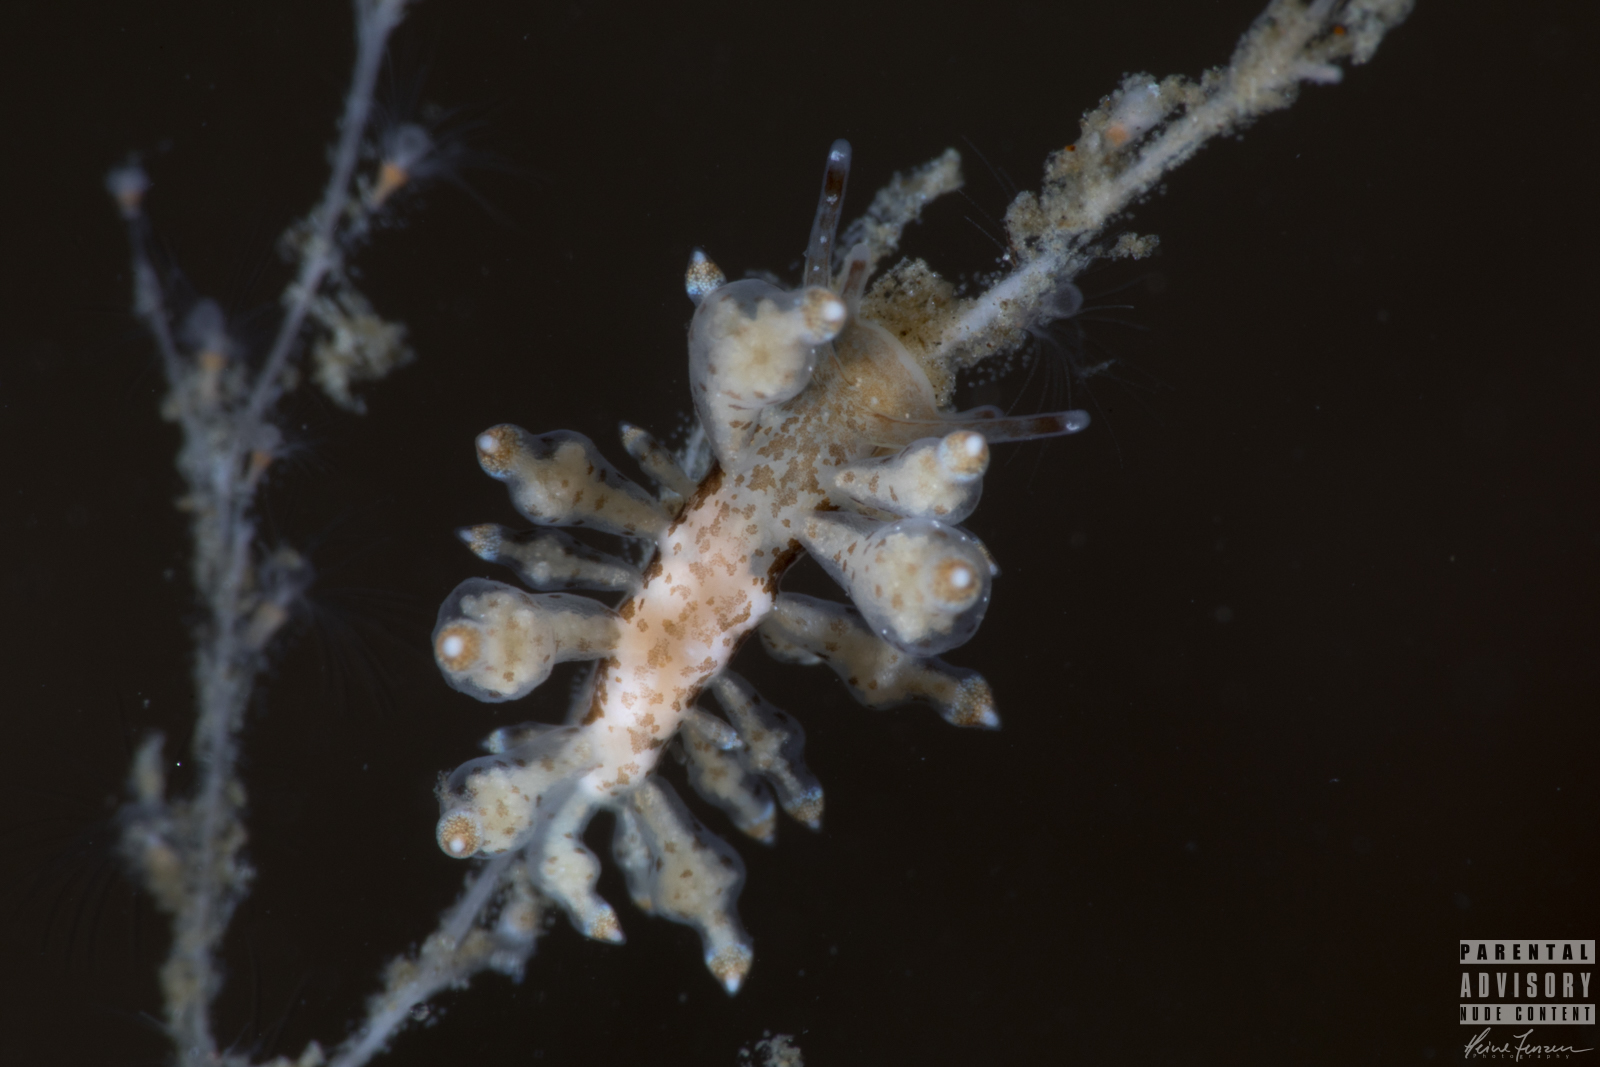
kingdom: Animalia
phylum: Mollusca
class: Gastropoda
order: Nudibranchia
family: Eubranchidae
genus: Eubranchus
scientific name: Eubranchus scintillans
